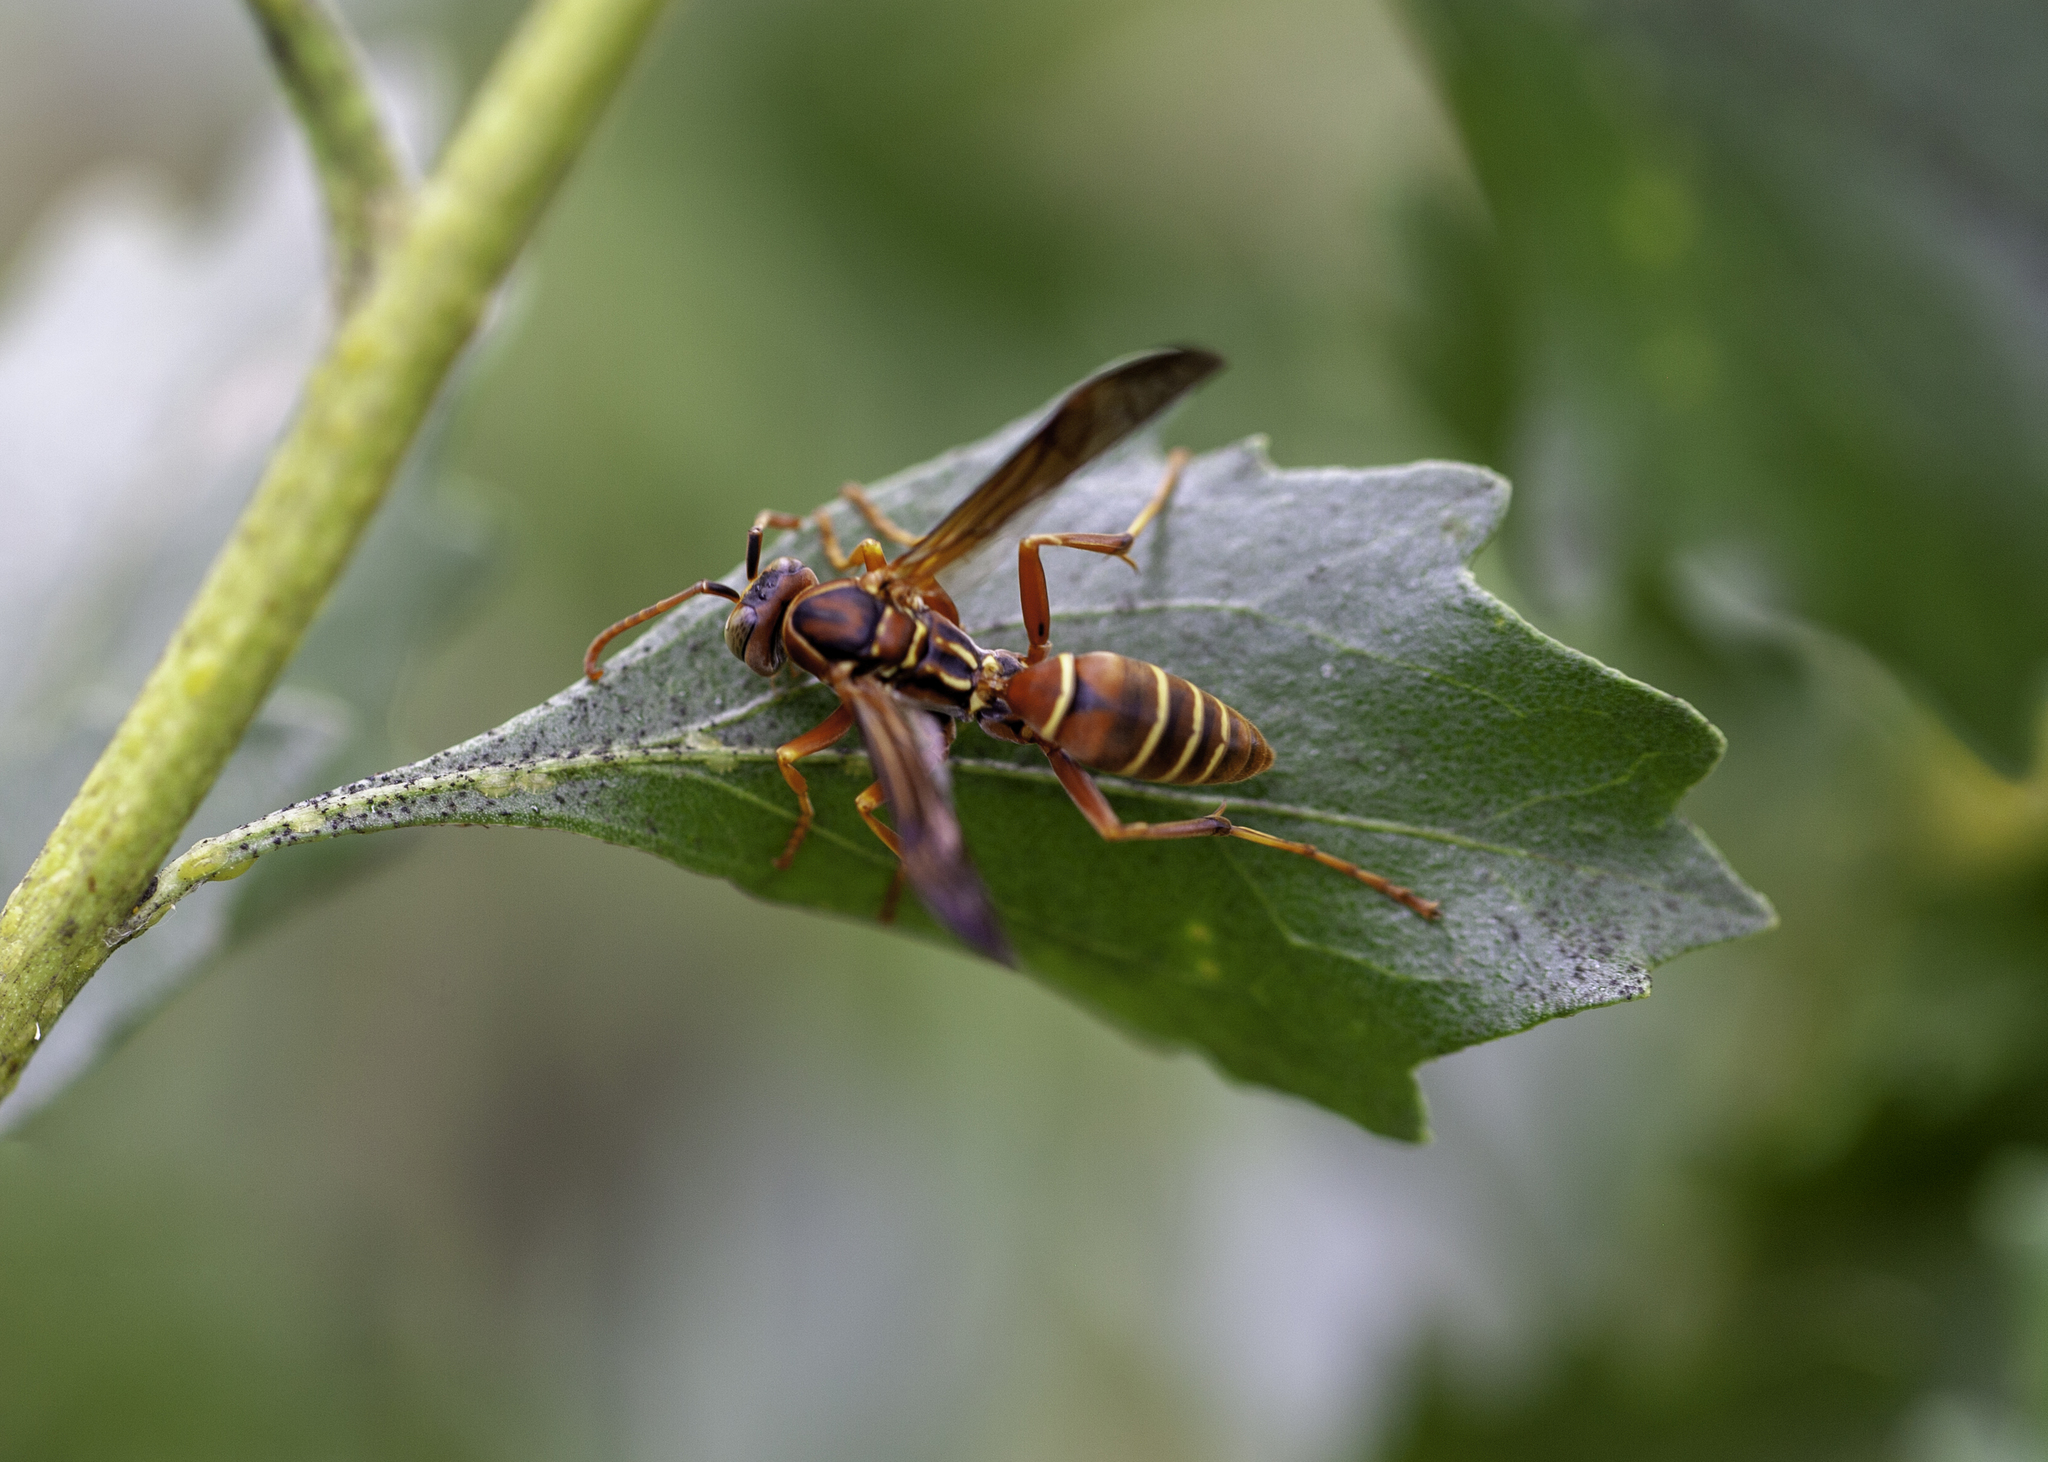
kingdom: Animalia
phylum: Arthropoda
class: Insecta
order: Hymenoptera
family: Eumenidae
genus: Polistes
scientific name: Polistes bellicosus
